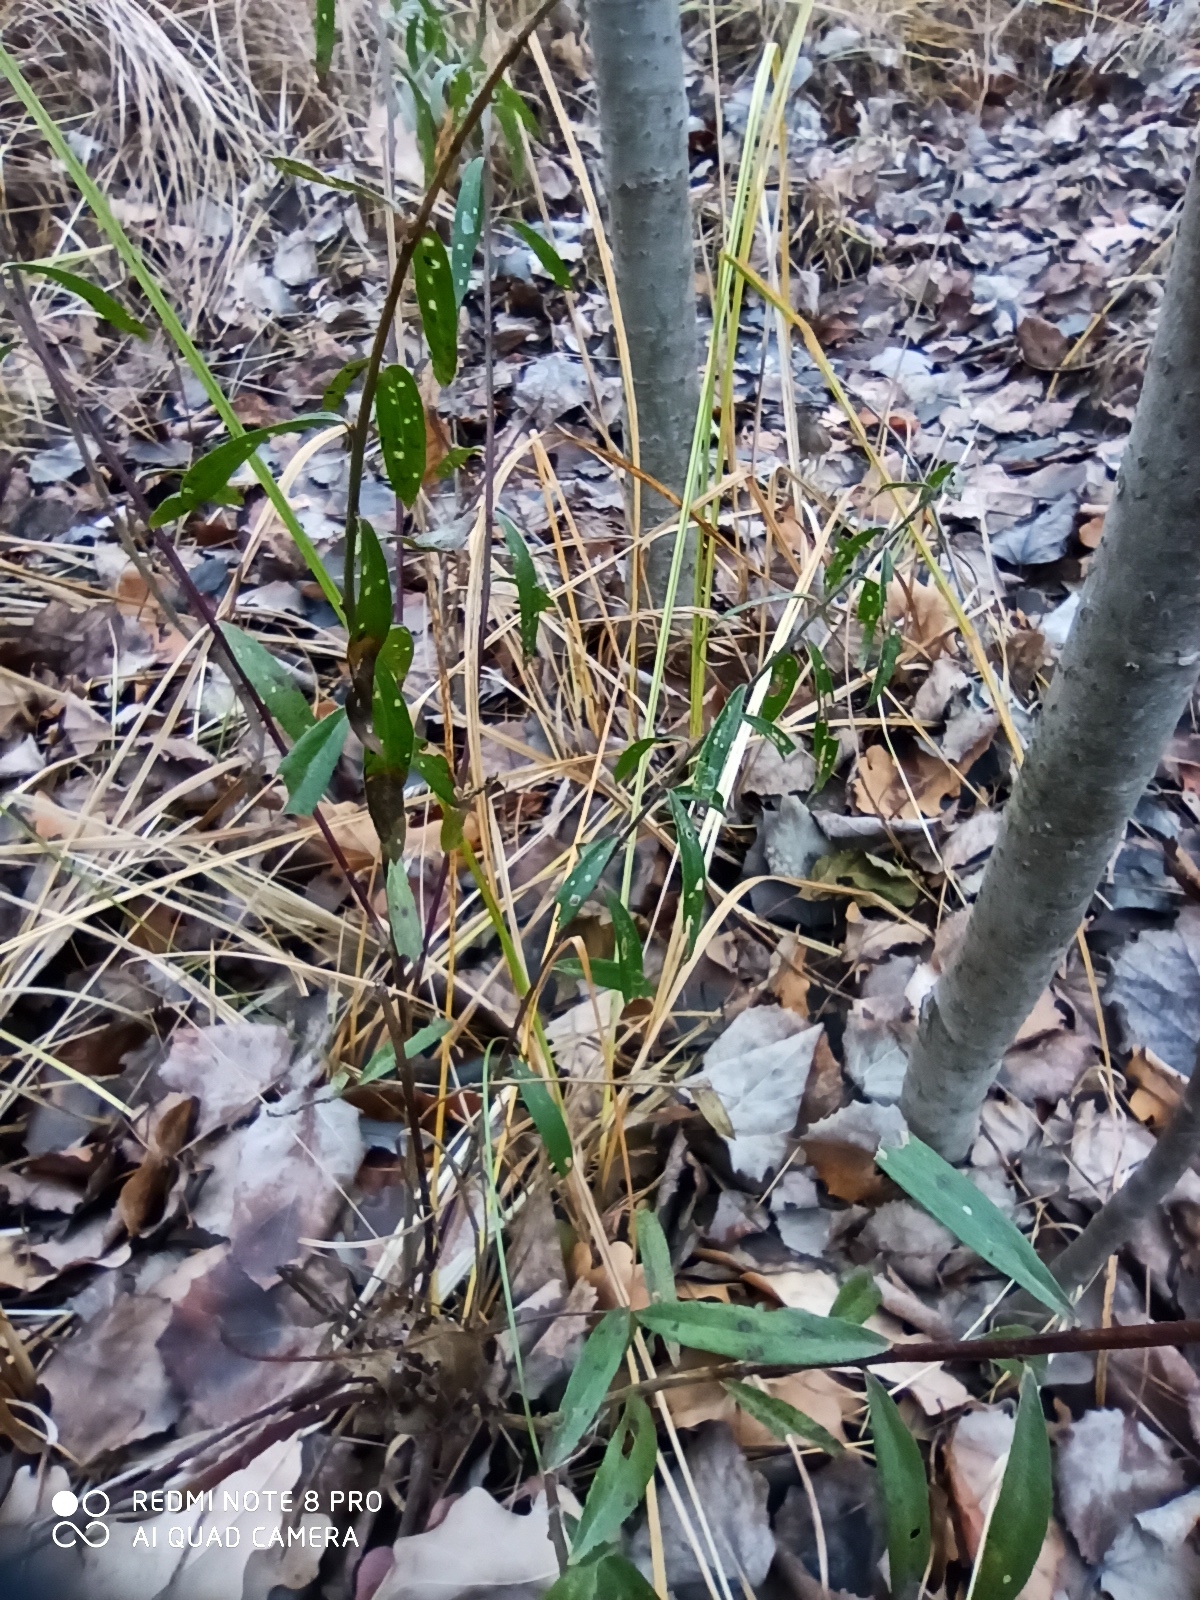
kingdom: Plantae
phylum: Tracheophyta
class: Magnoliopsida
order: Fabales
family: Fabaceae
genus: Genista
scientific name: Genista tinctoria
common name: Dyer's greenweed
